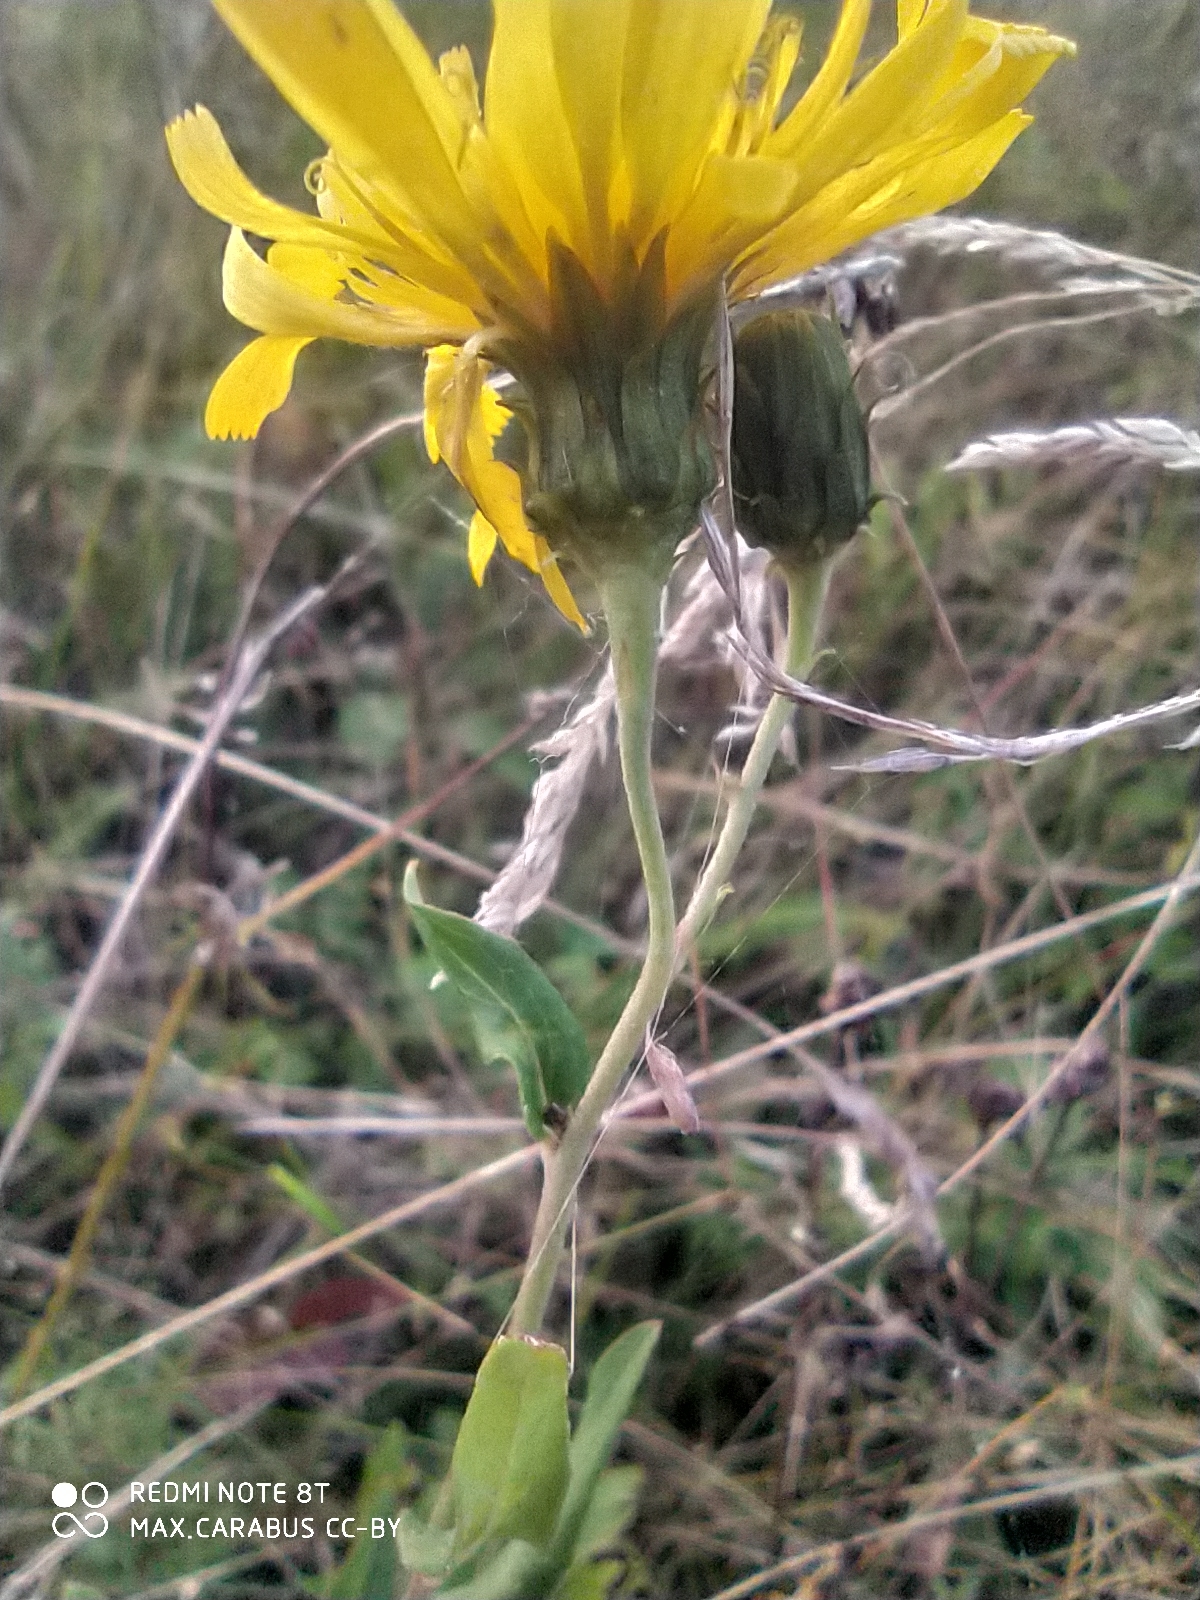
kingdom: Plantae
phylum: Tracheophyta
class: Magnoliopsida
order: Asterales
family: Asteraceae
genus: Hieracium
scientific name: Hieracium umbellatum
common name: Northern hawkweed
